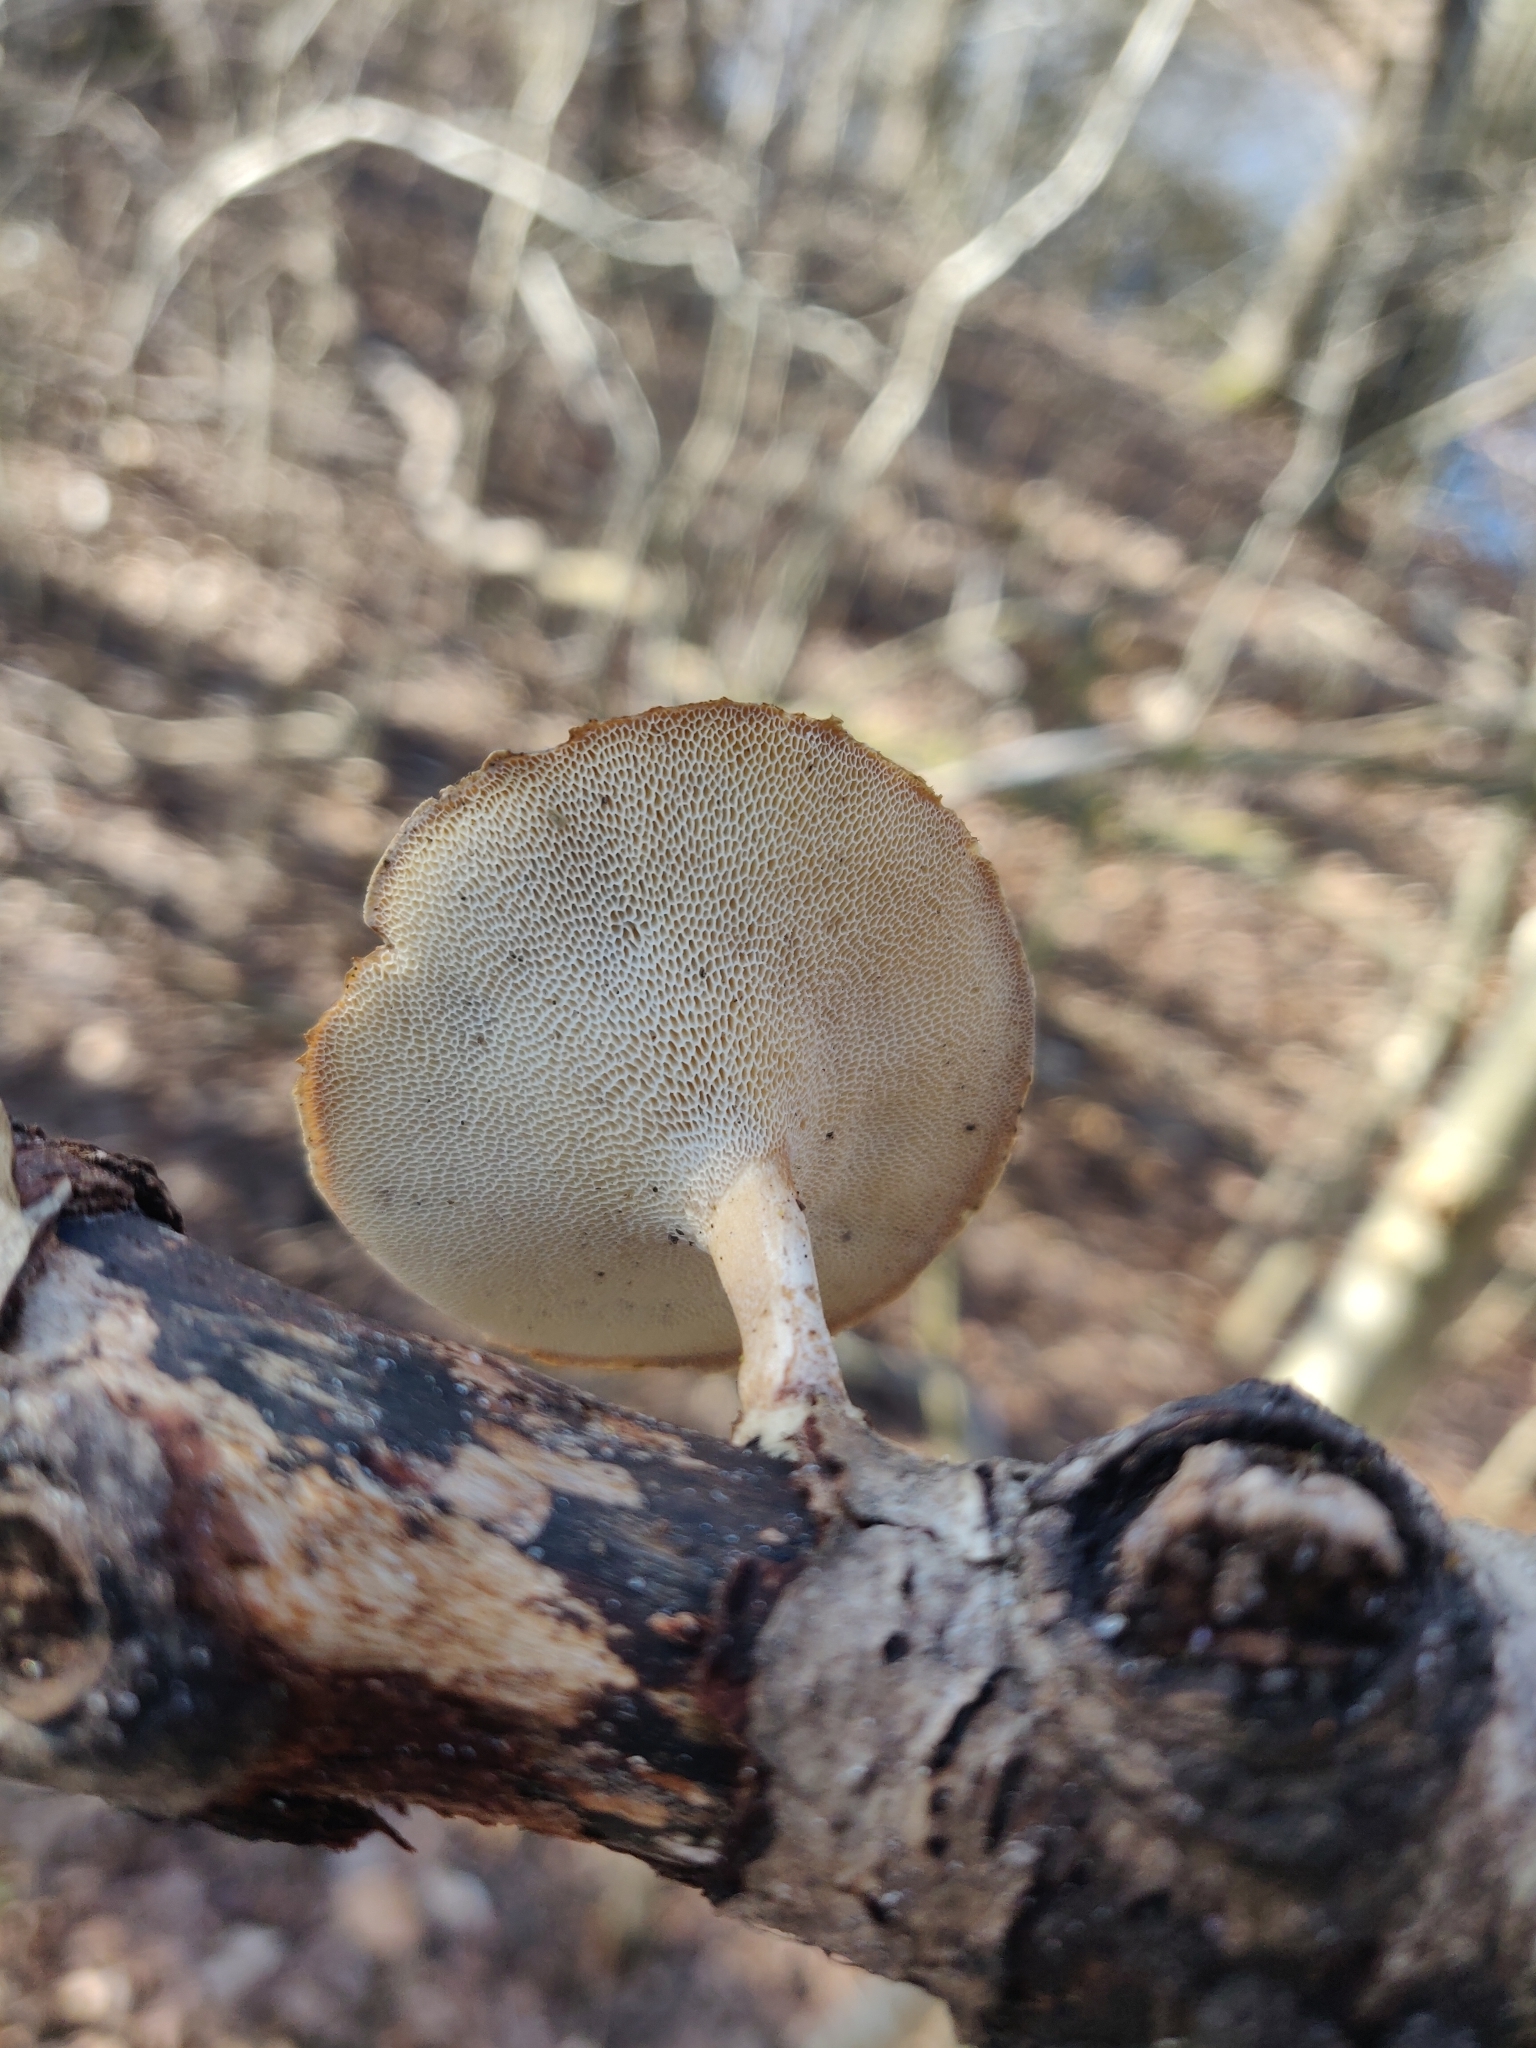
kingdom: Fungi
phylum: Basidiomycota
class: Agaricomycetes
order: Polyporales
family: Polyporaceae
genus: Lentinus
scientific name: Lentinus brumalis
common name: Winter polypore
